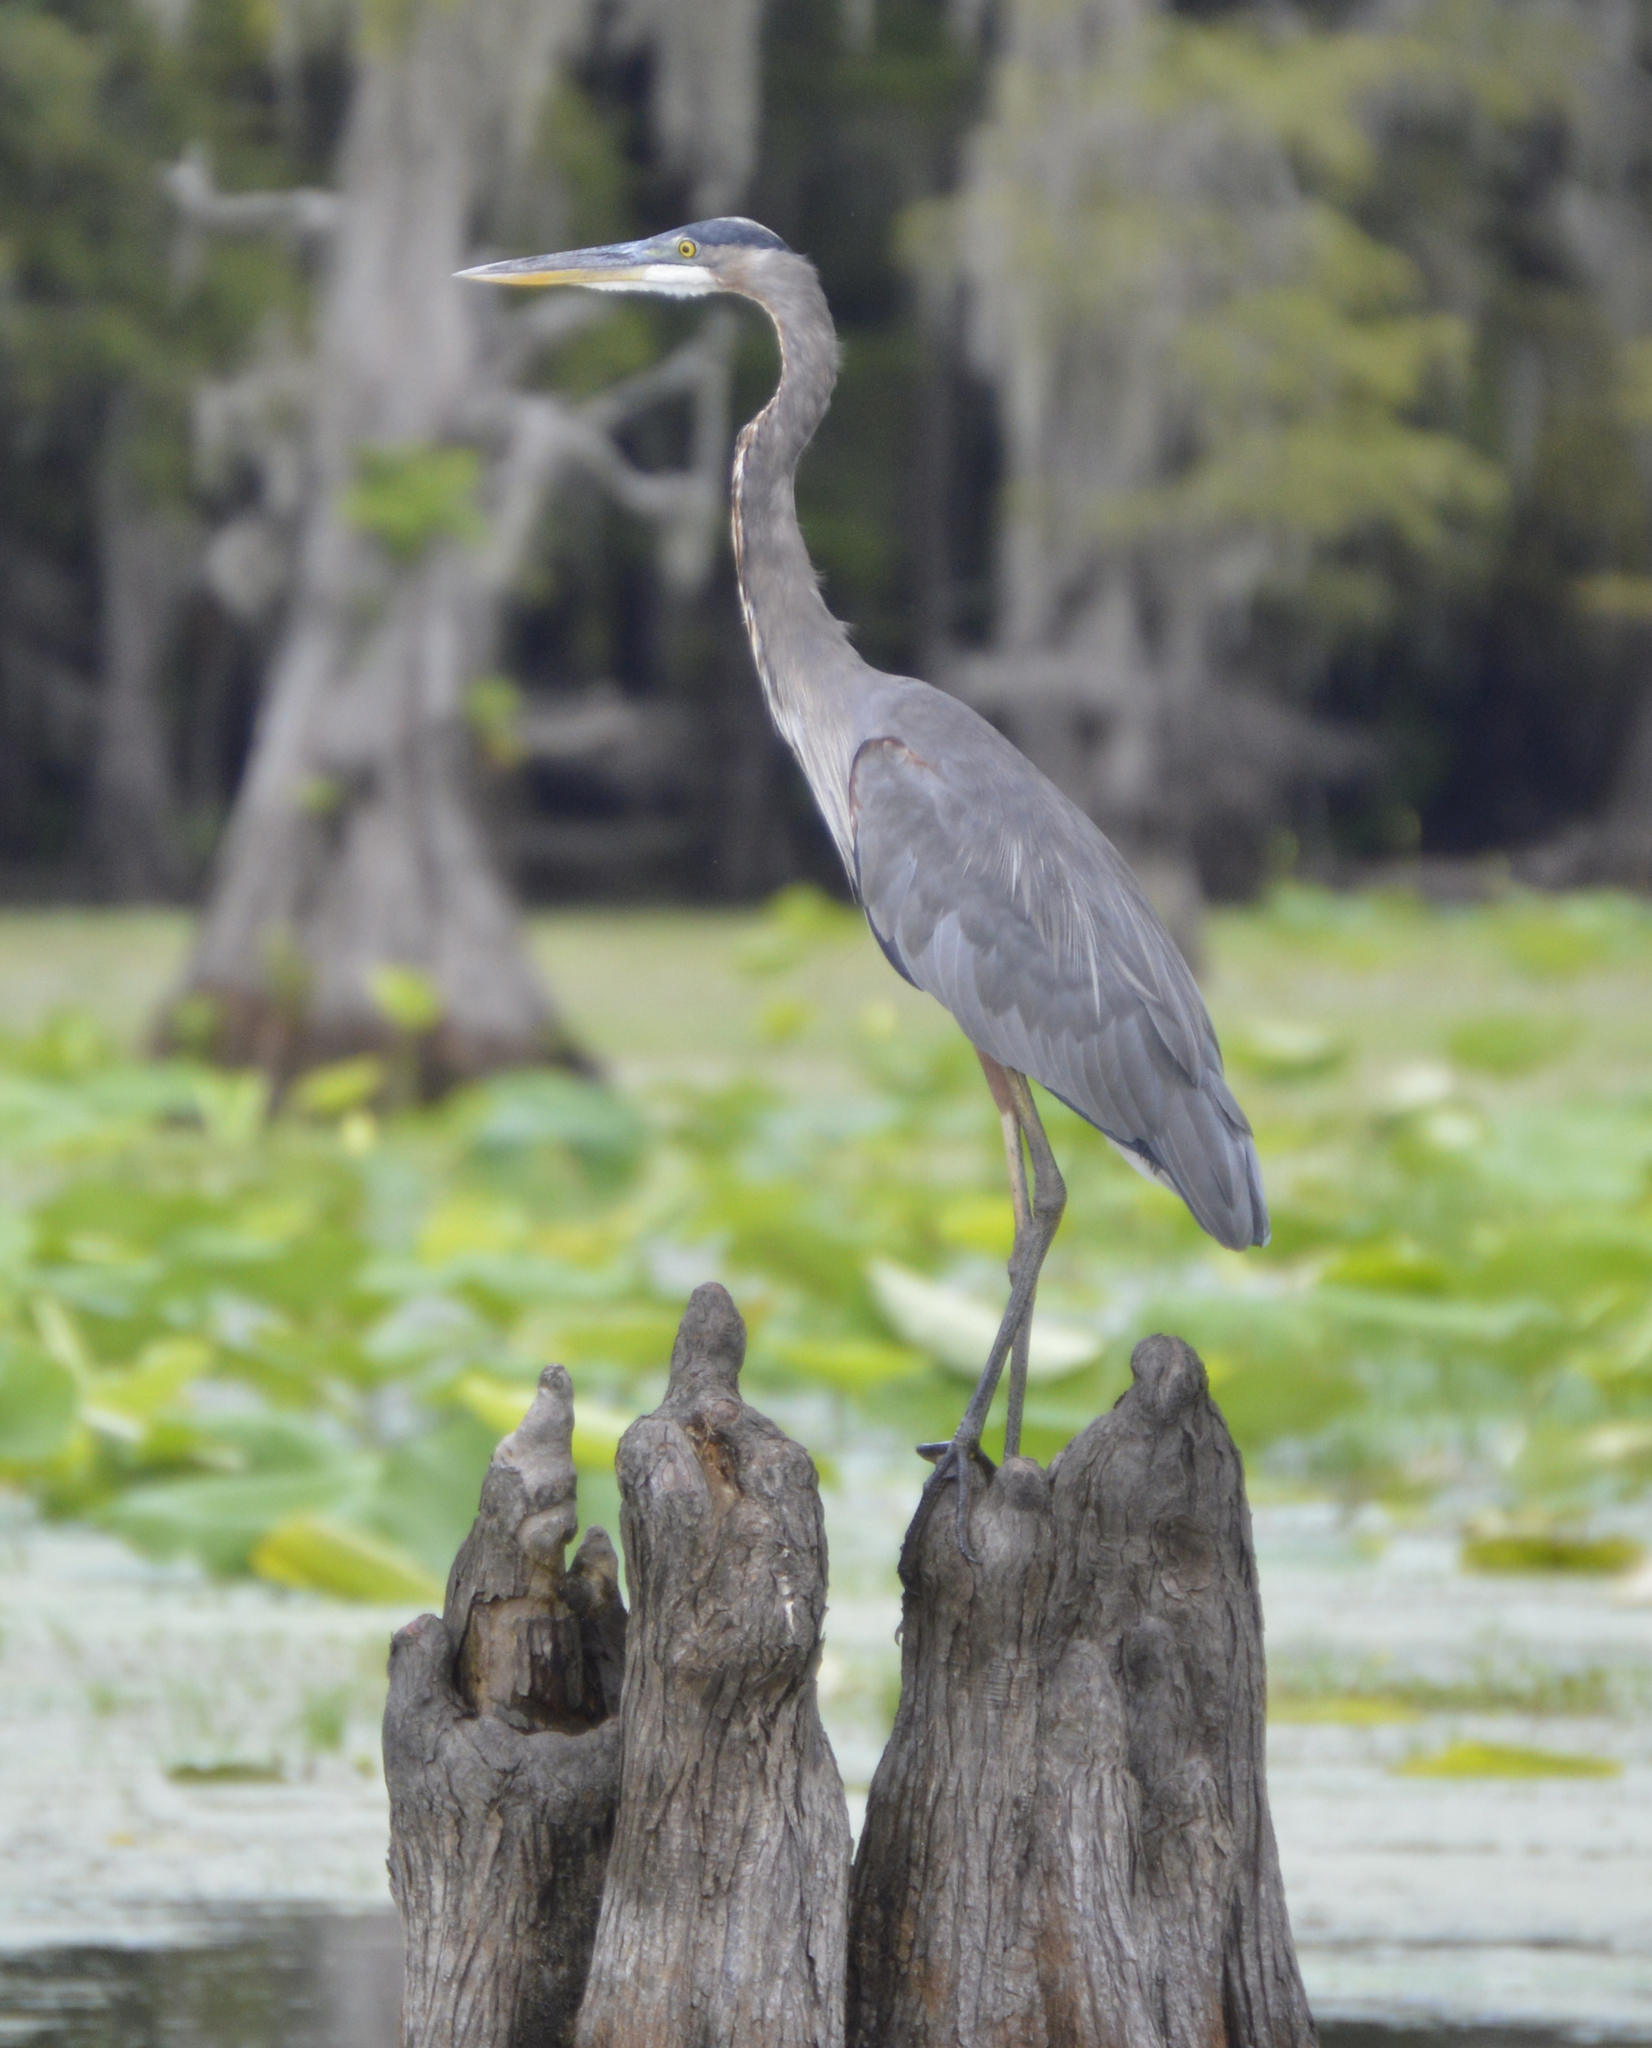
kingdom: Animalia
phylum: Chordata
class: Aves
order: Pelecaniformes
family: Ardeidae
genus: Ardea
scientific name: Ardea herodias
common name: Great blue heron
